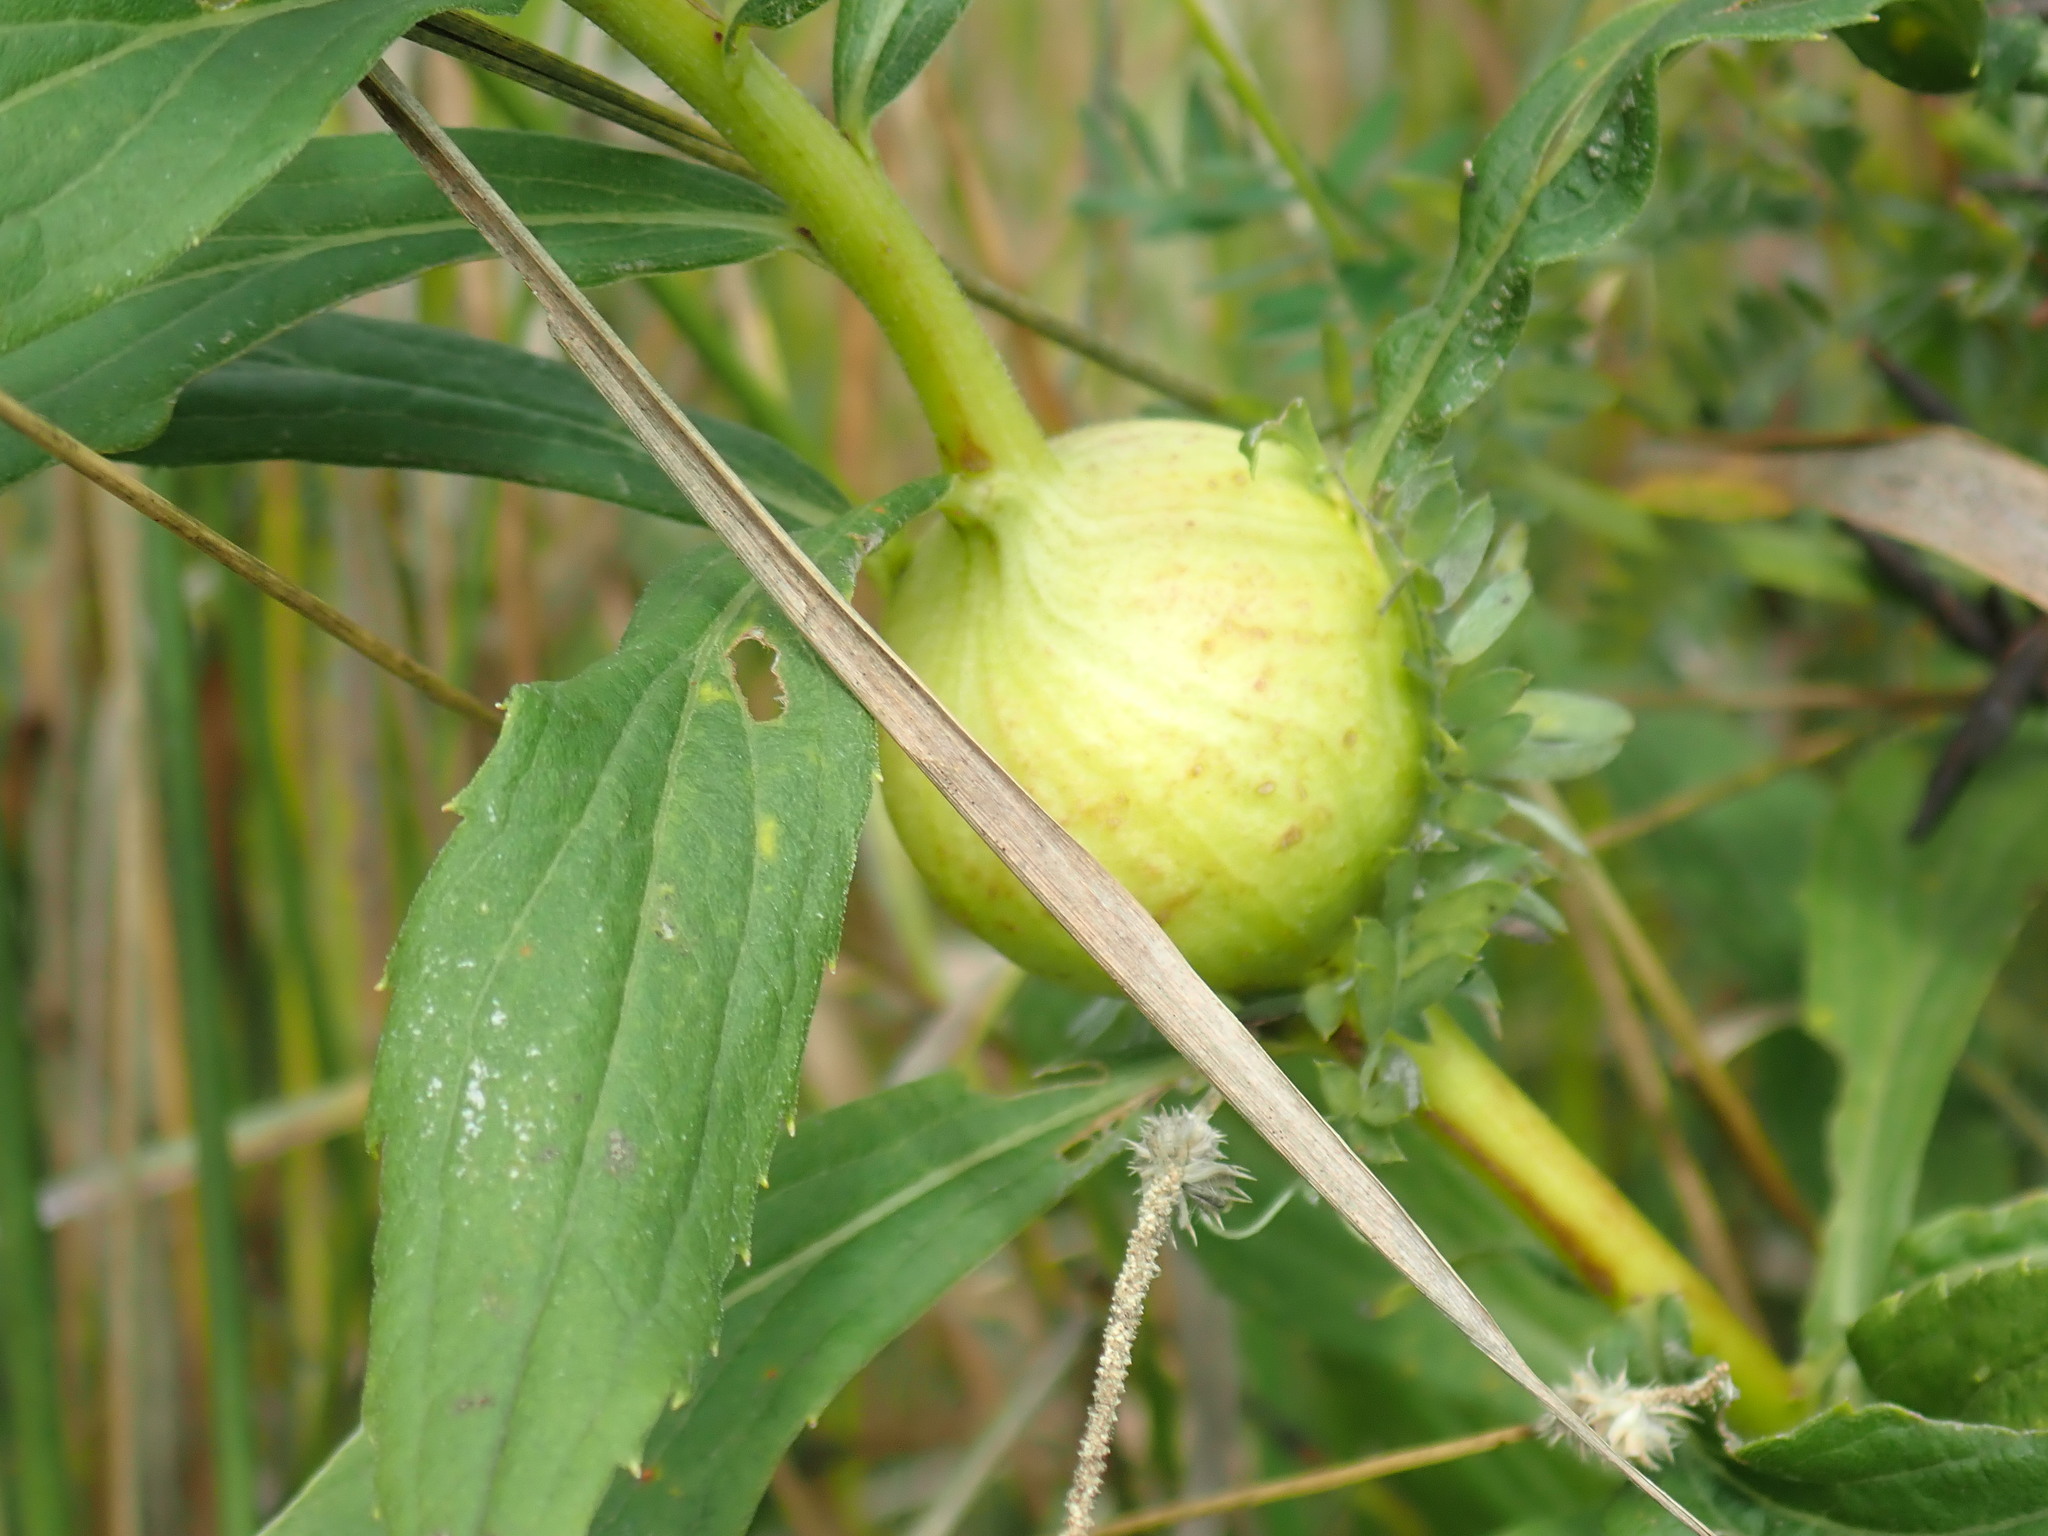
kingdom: Animalia
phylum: Arthropoda
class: Insecta
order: Diptera
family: Tephritidae
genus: Eurosta
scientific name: Eurosta solidaginis
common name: Goldenrod gall fly
